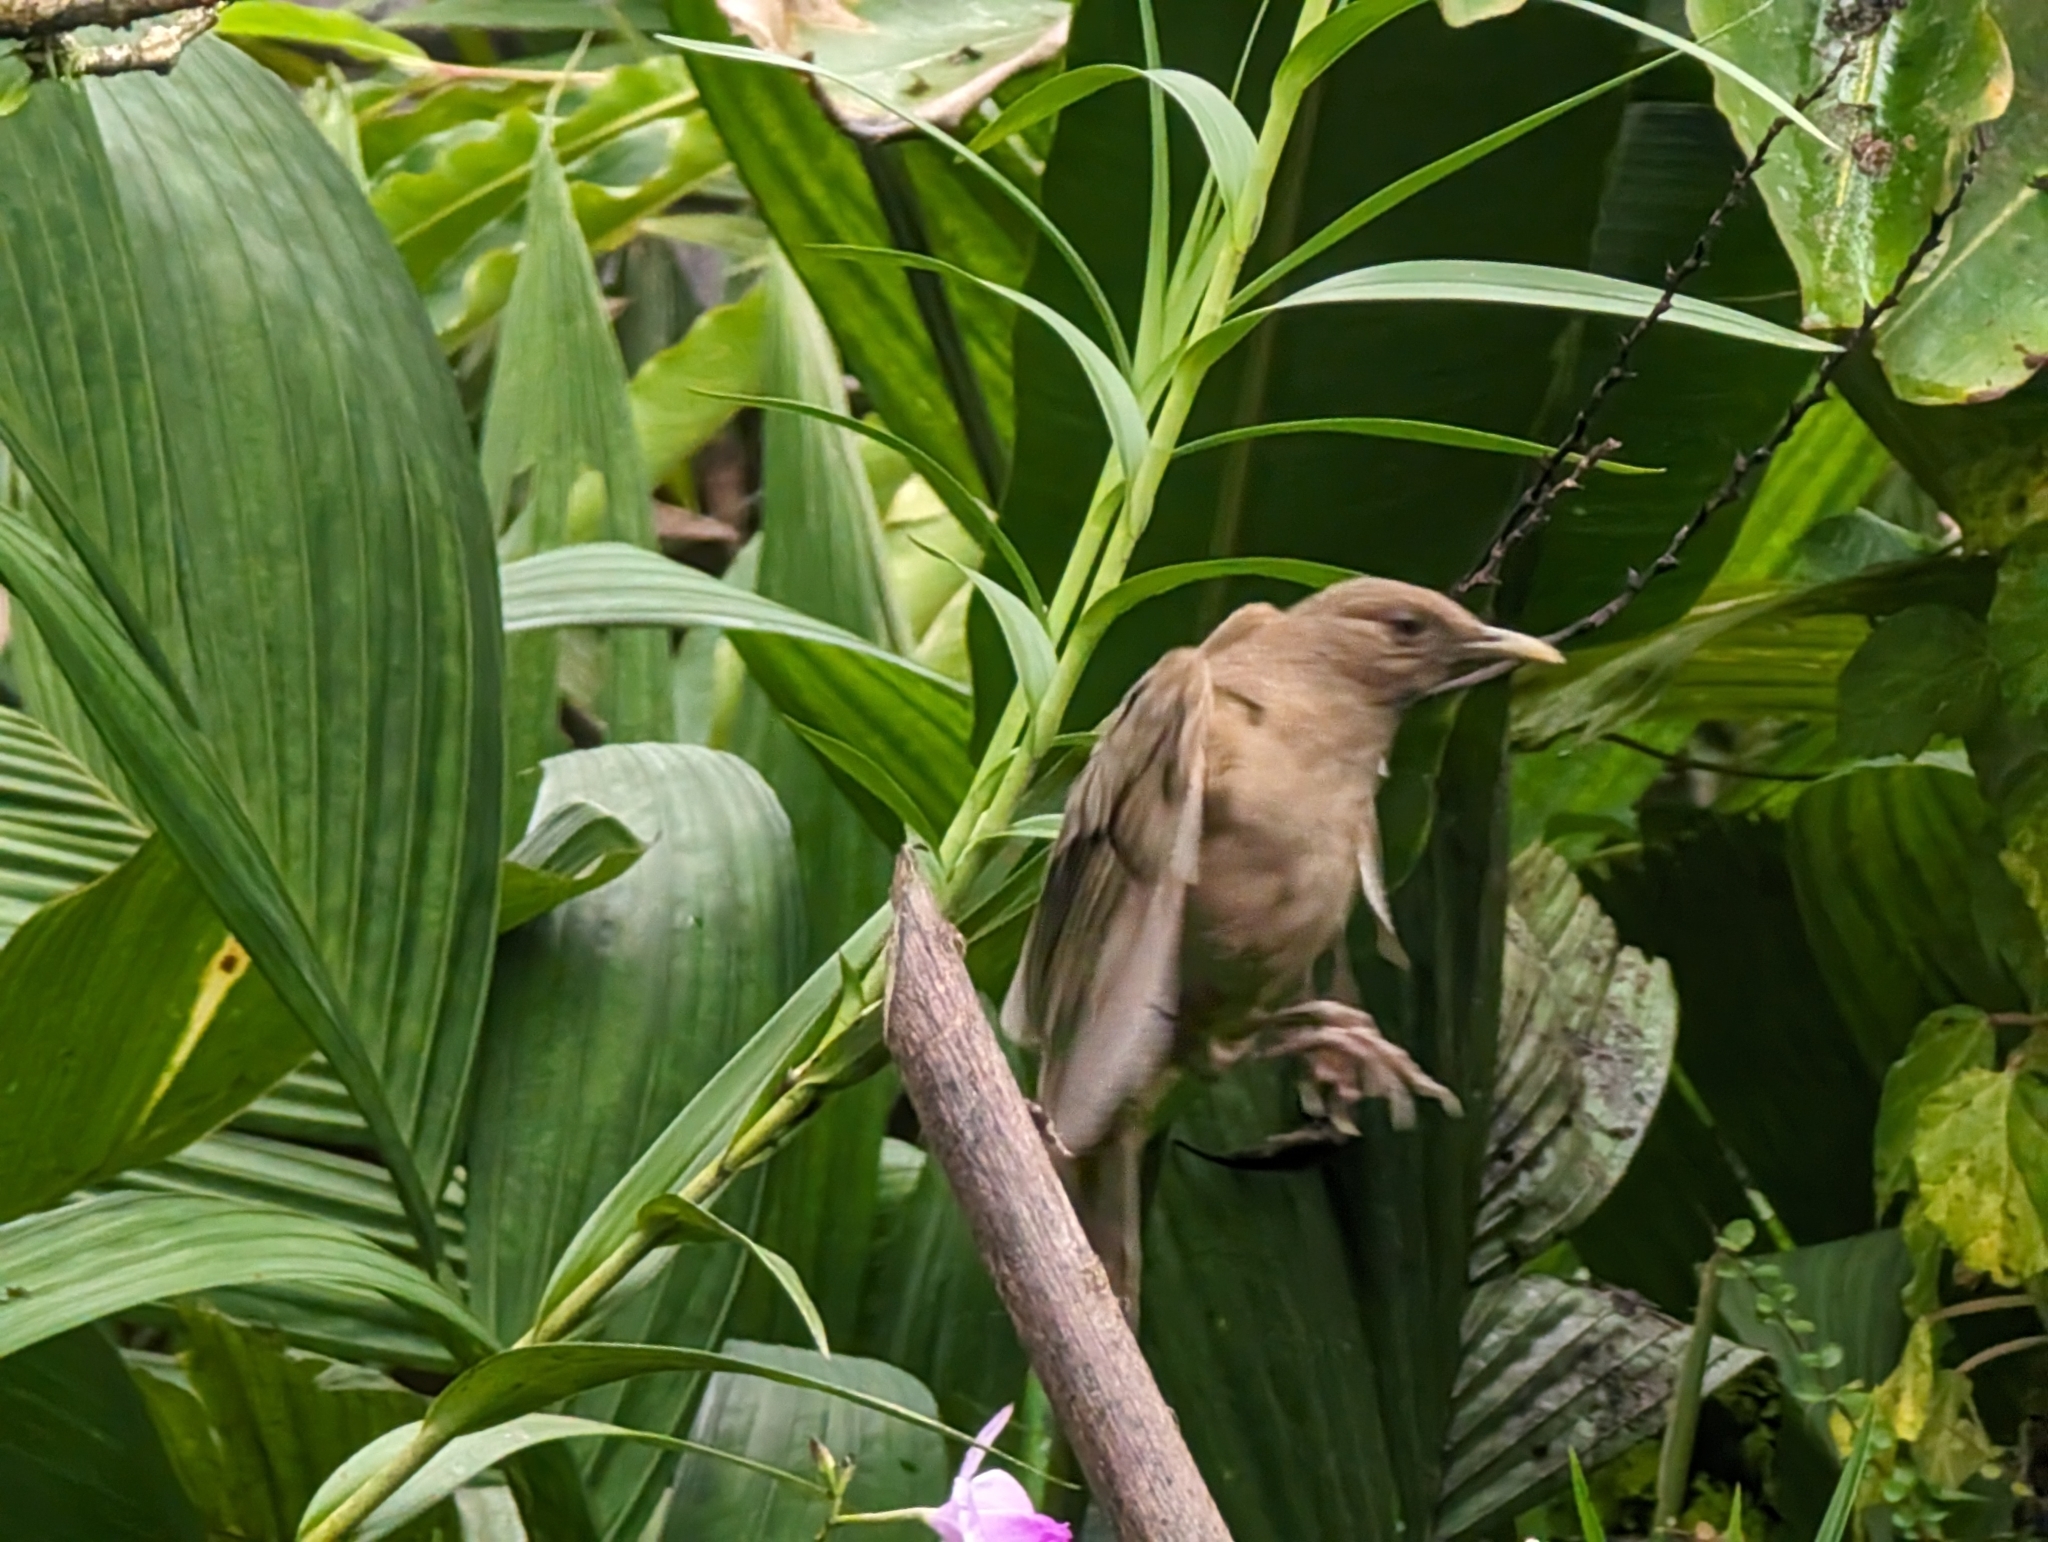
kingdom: Animalia
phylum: Chordata
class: Aves
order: Passeriformes
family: Turdidae
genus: Turdus
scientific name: Turdus grayi
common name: Clay-colored thrush
